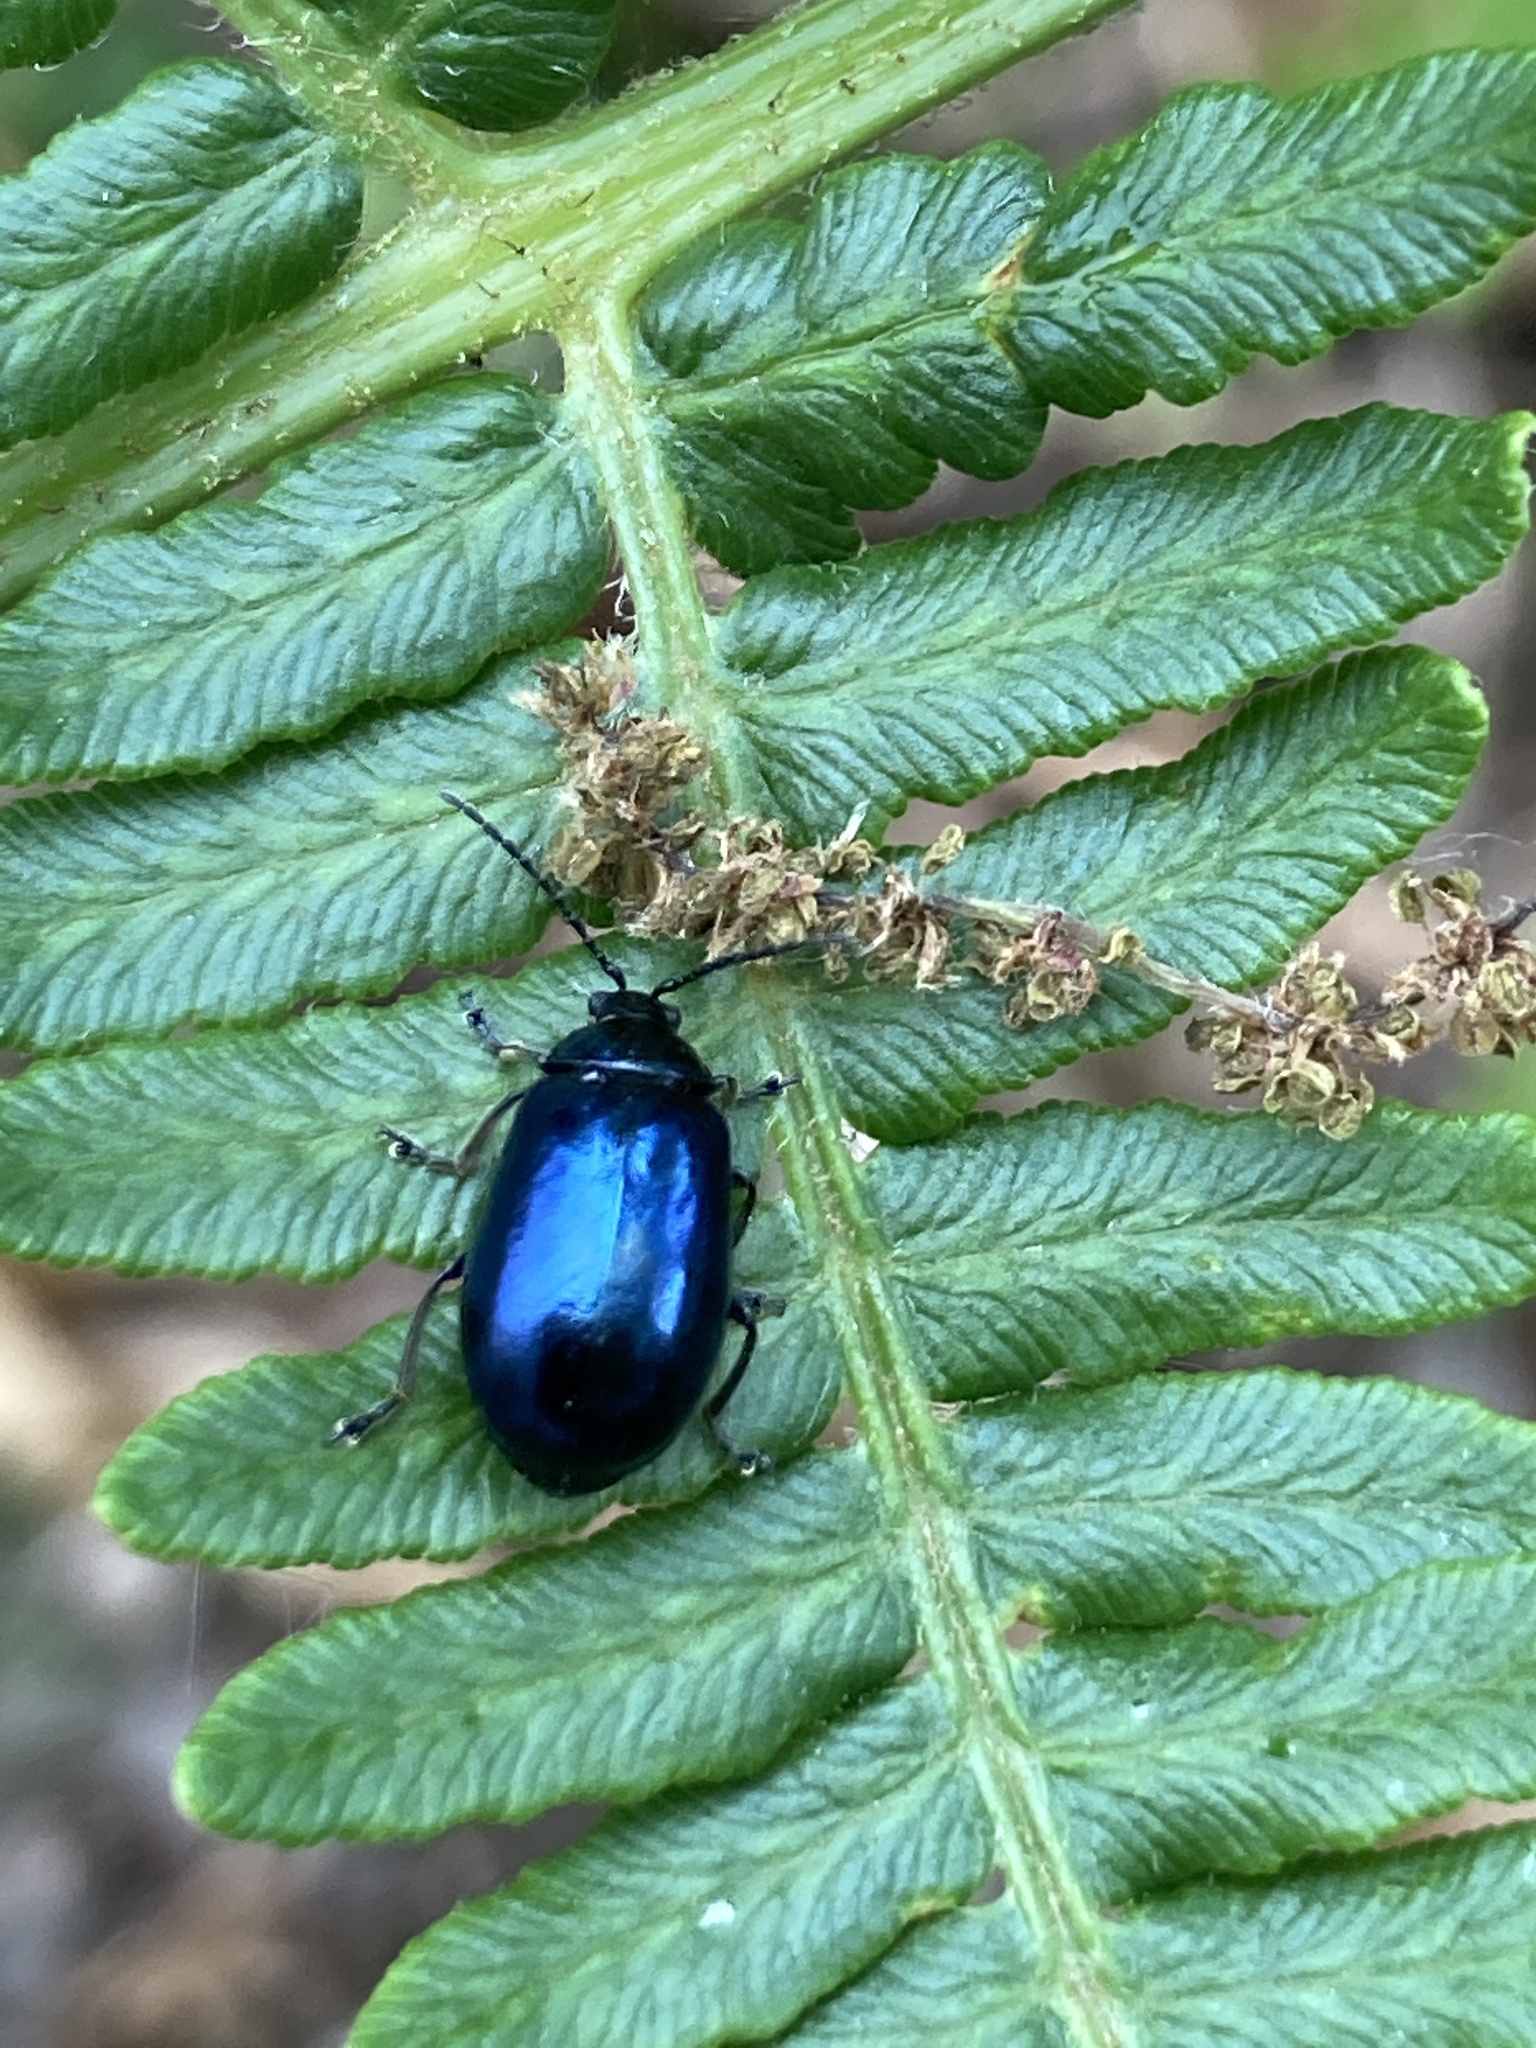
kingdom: Animalia
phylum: Arthropoda
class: Insecta
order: Coleoptera
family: Chrysomelidae
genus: Agelastica
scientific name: Agelastica alni
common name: Alder leaf beetle
